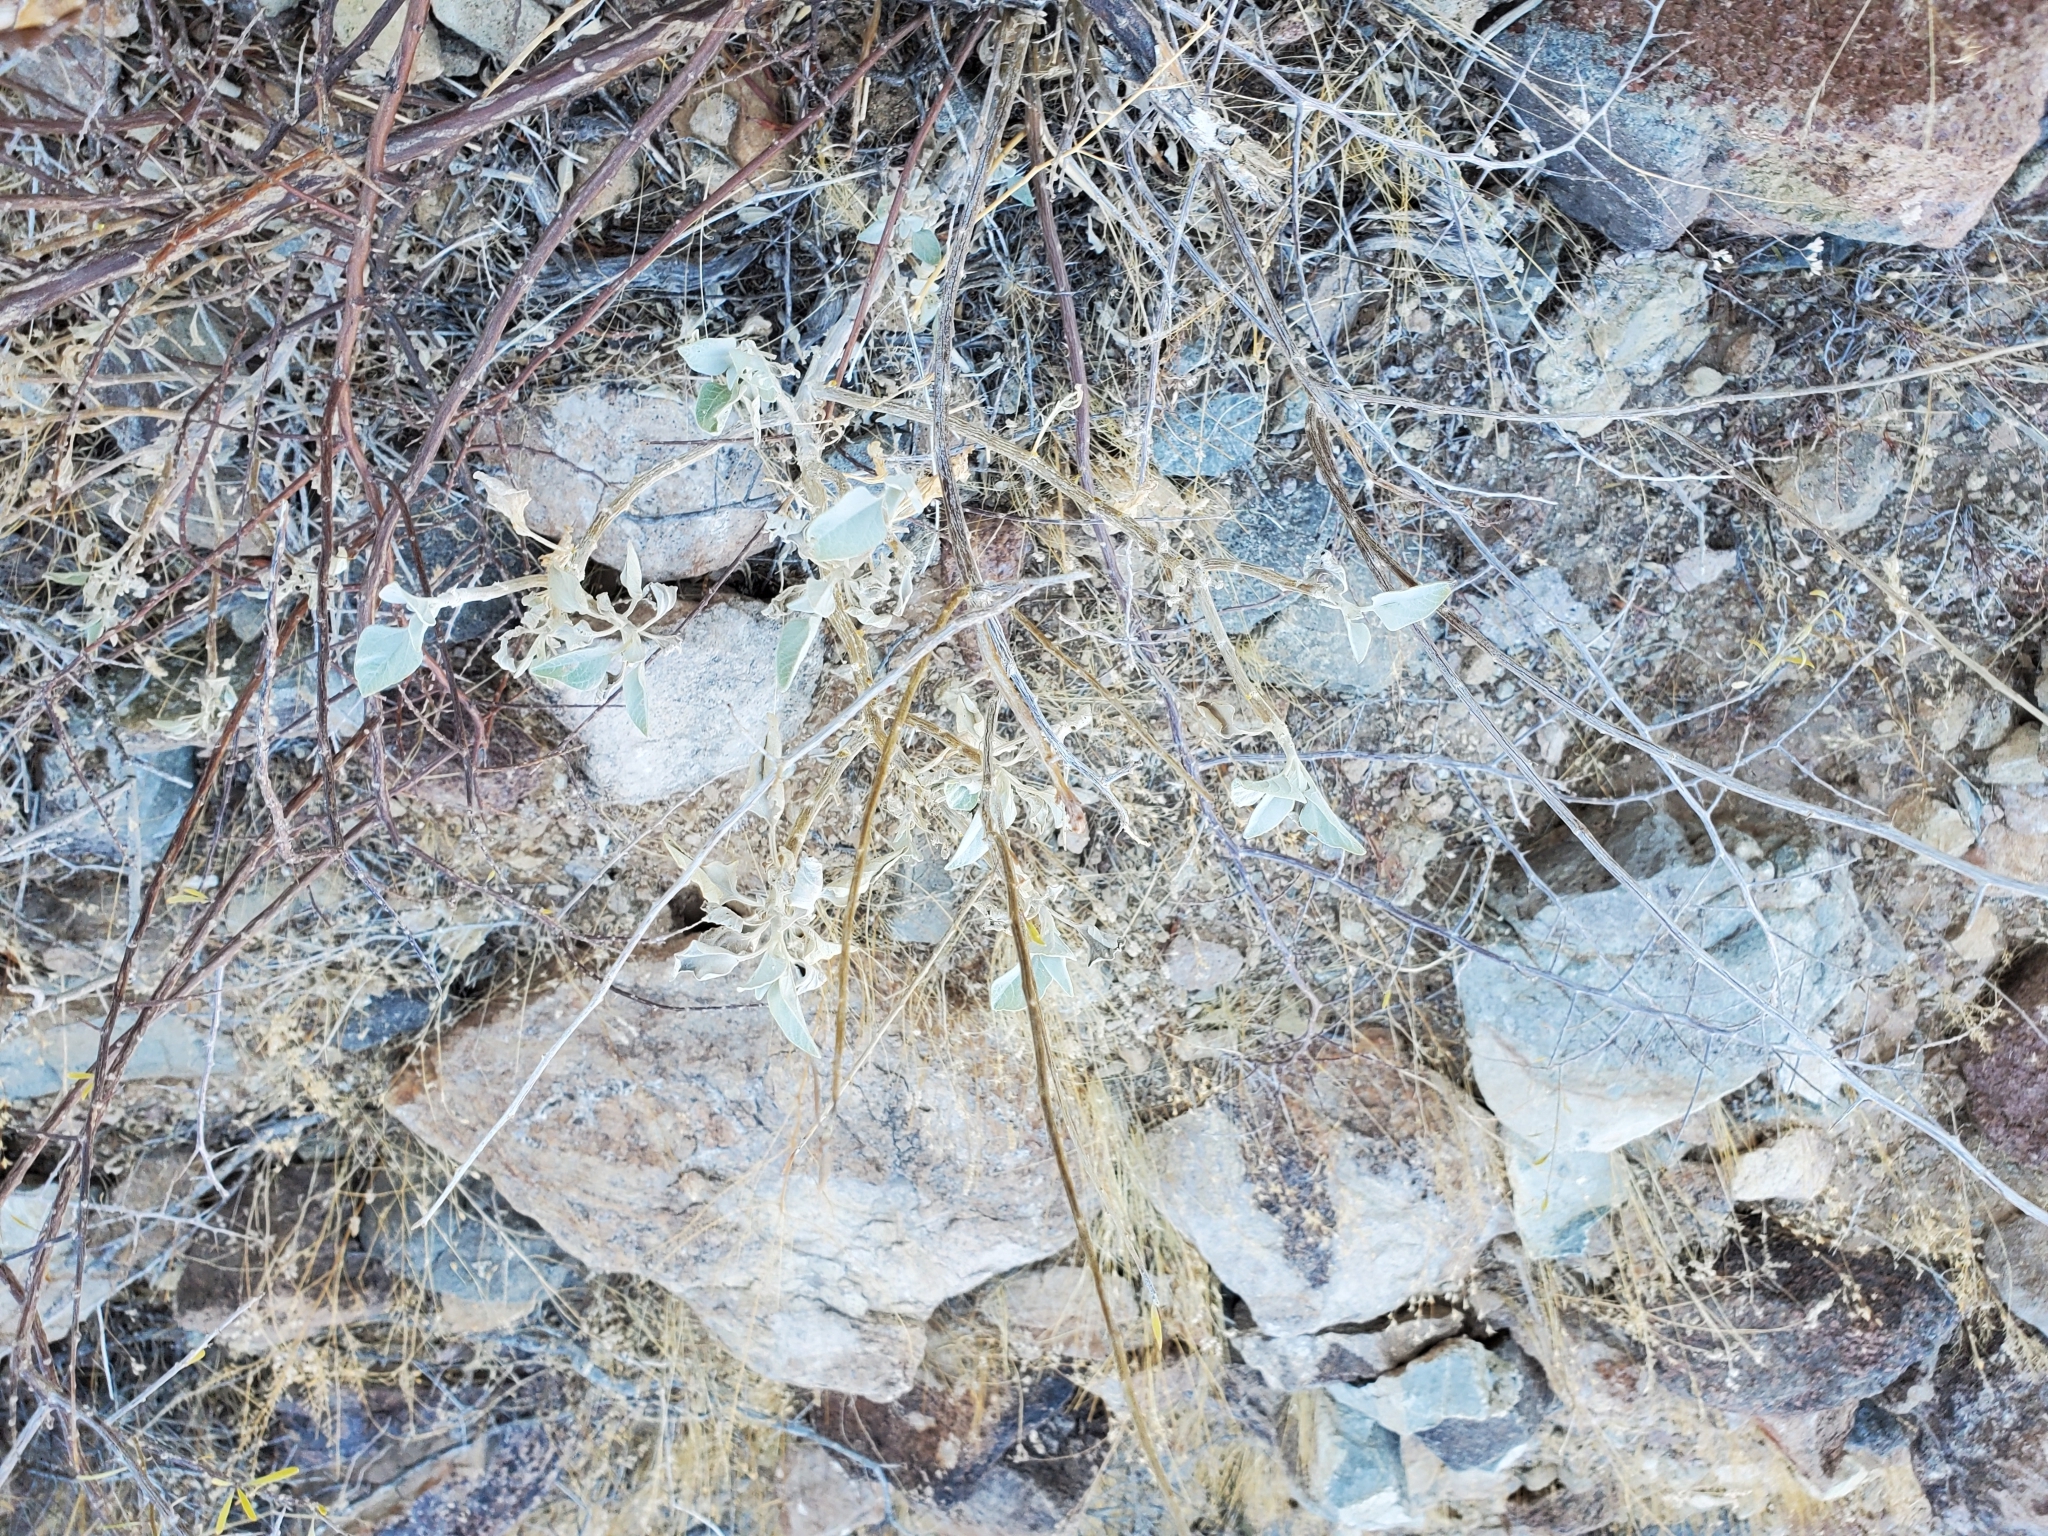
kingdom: Plantae
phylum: Tracheophyta
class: Magnoliopsida
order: Asterales
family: Asteraceae
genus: Encelia
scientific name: Encelia farinosa
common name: Brittlebush
